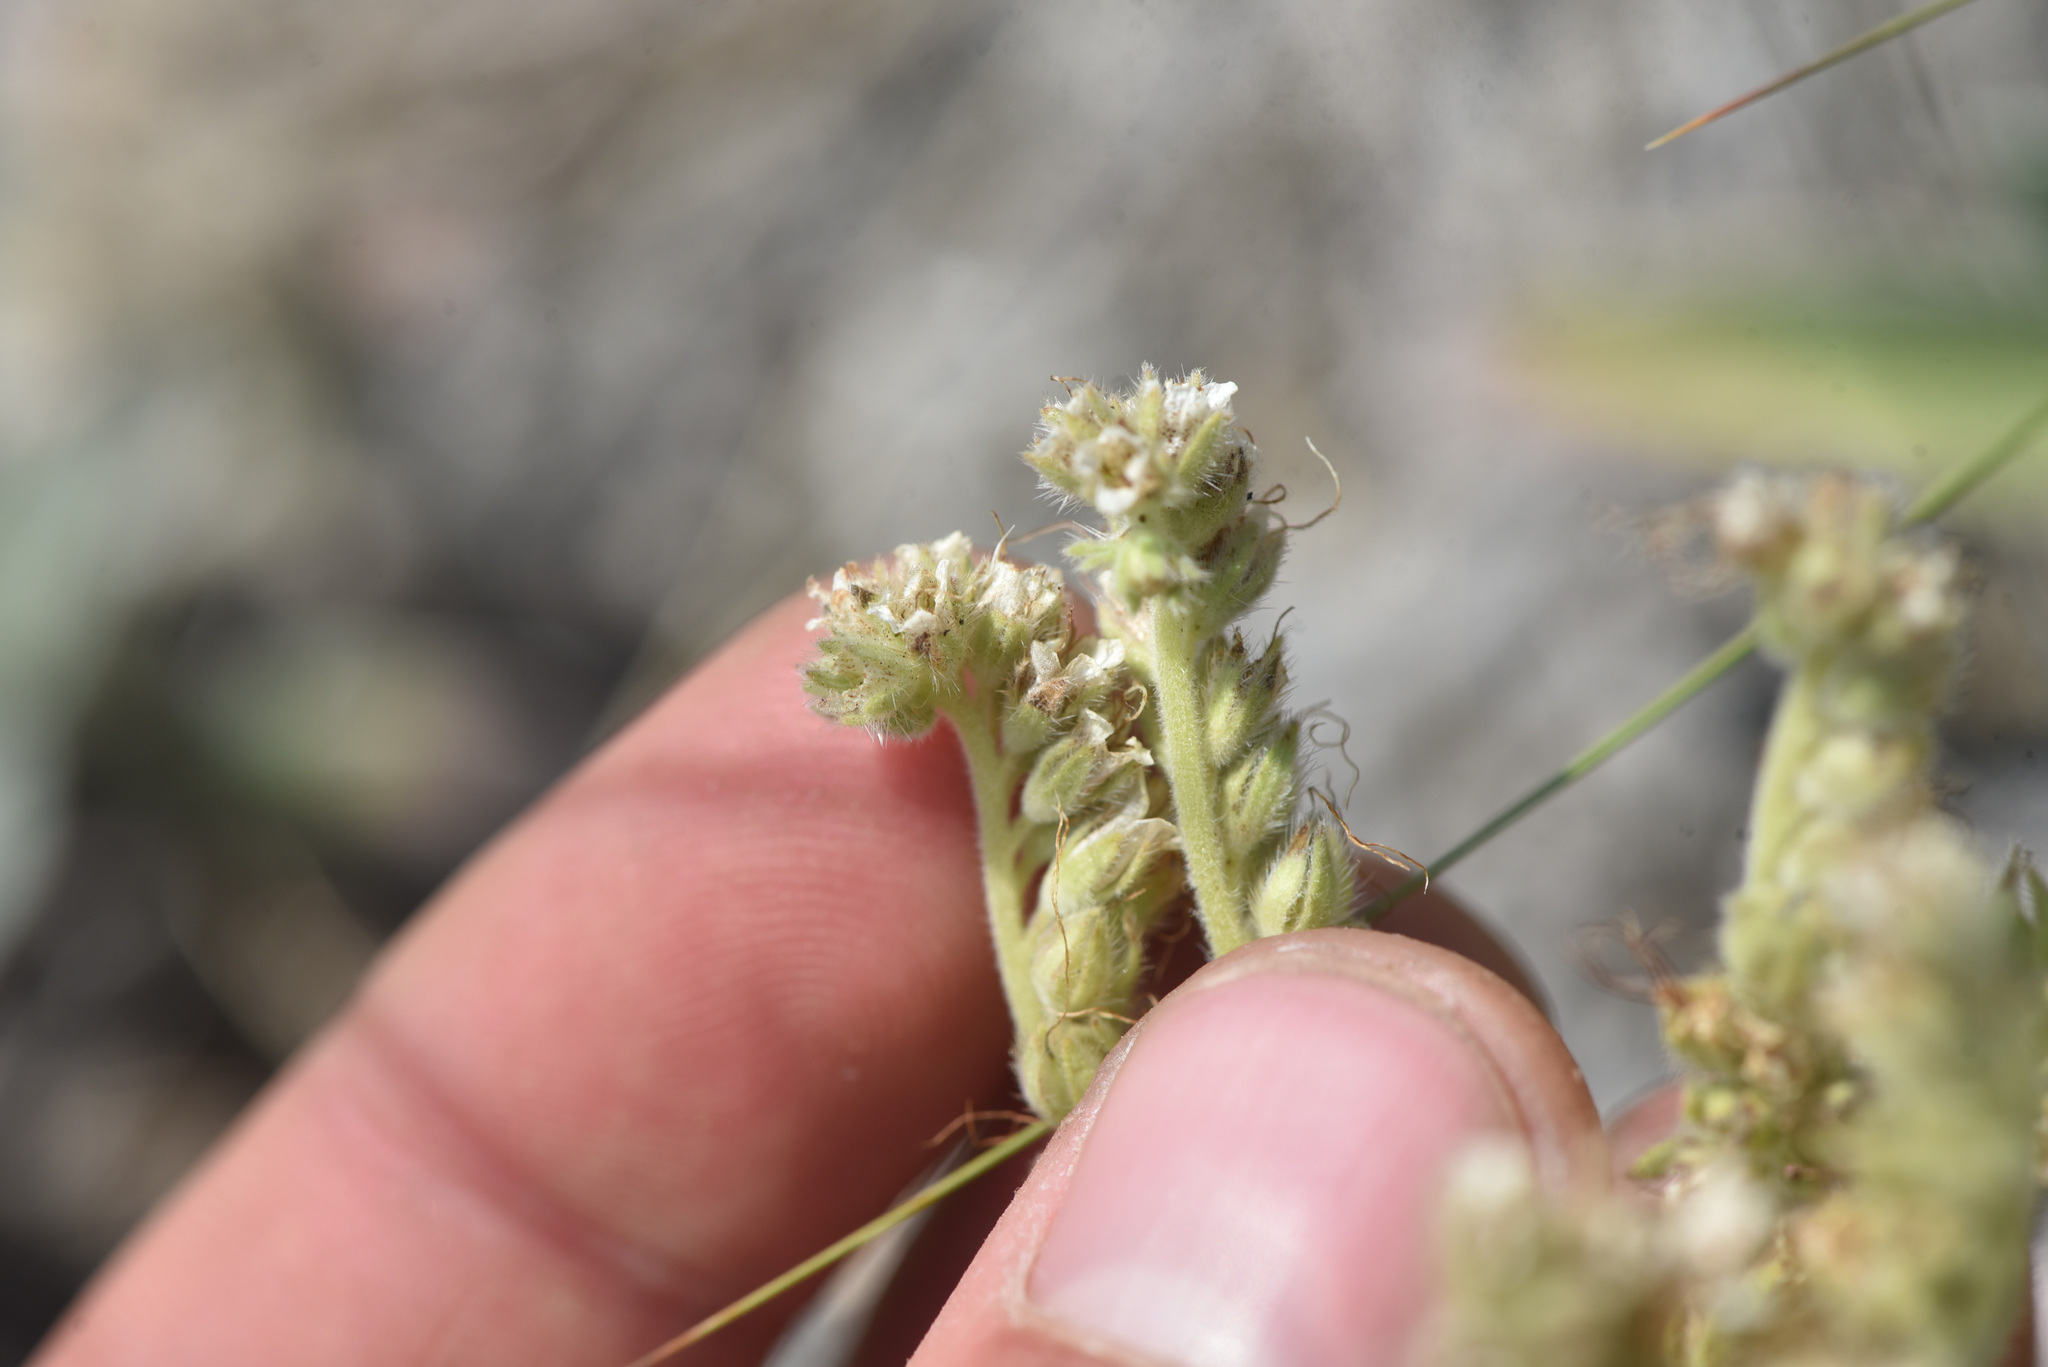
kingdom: Plantae
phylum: Tracheophyta
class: Magnoliopsida
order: Boraginales
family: Hydrophyllaceae
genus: Phacelia
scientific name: Phacelia hastata
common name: Silver-leaved phacelia
